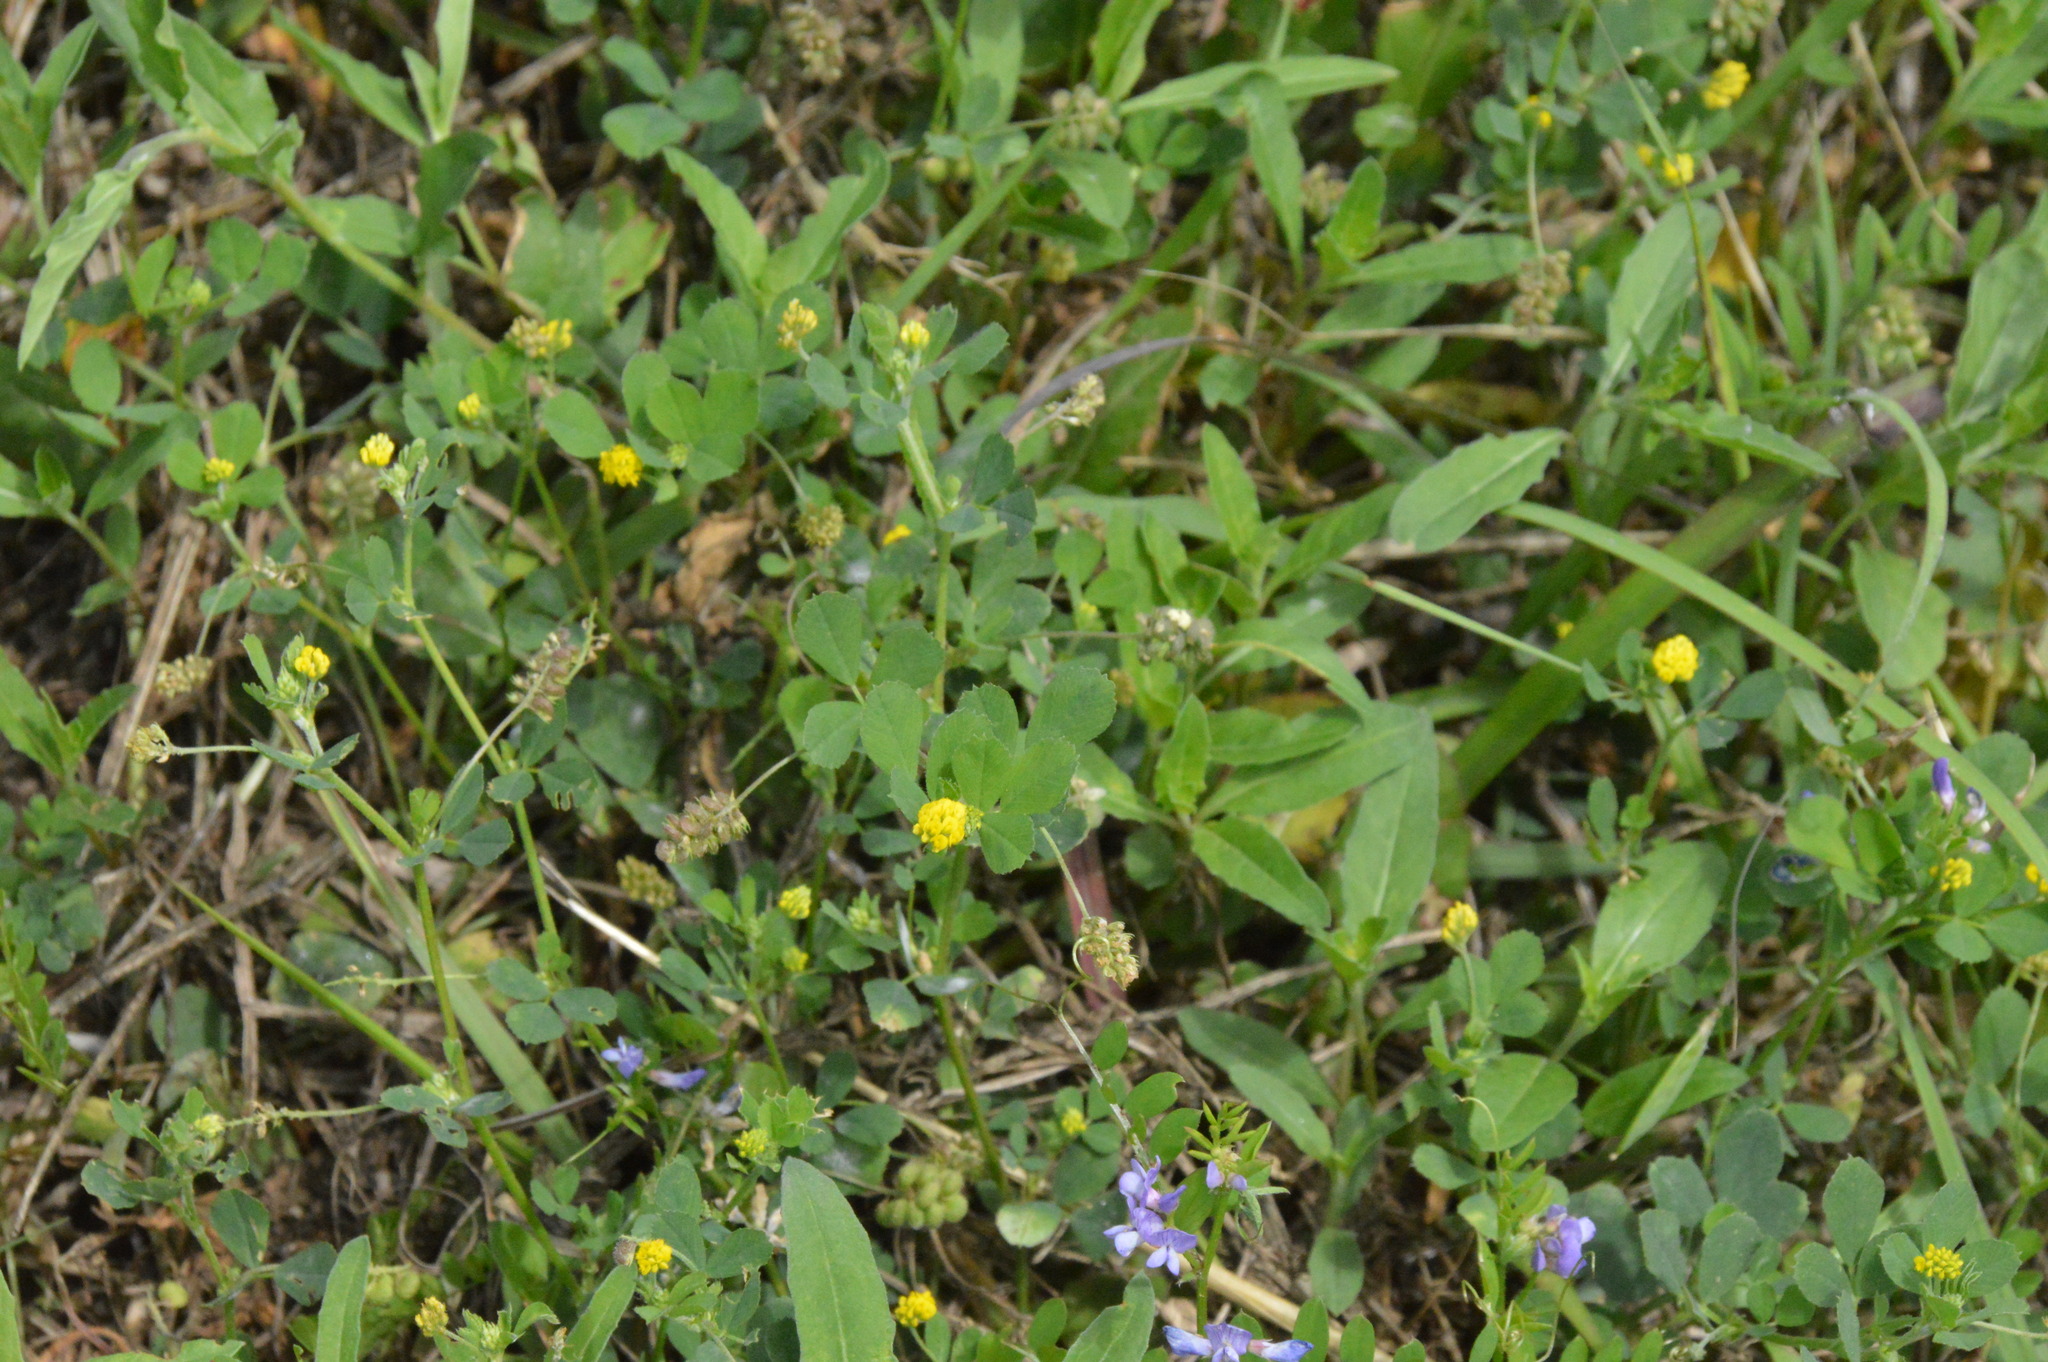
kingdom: Plantae
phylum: Tracheophyta
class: Magnoliopsida
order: Fabales
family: Fabaceae
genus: Medicago
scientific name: Medicago lupulina
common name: Black medick
